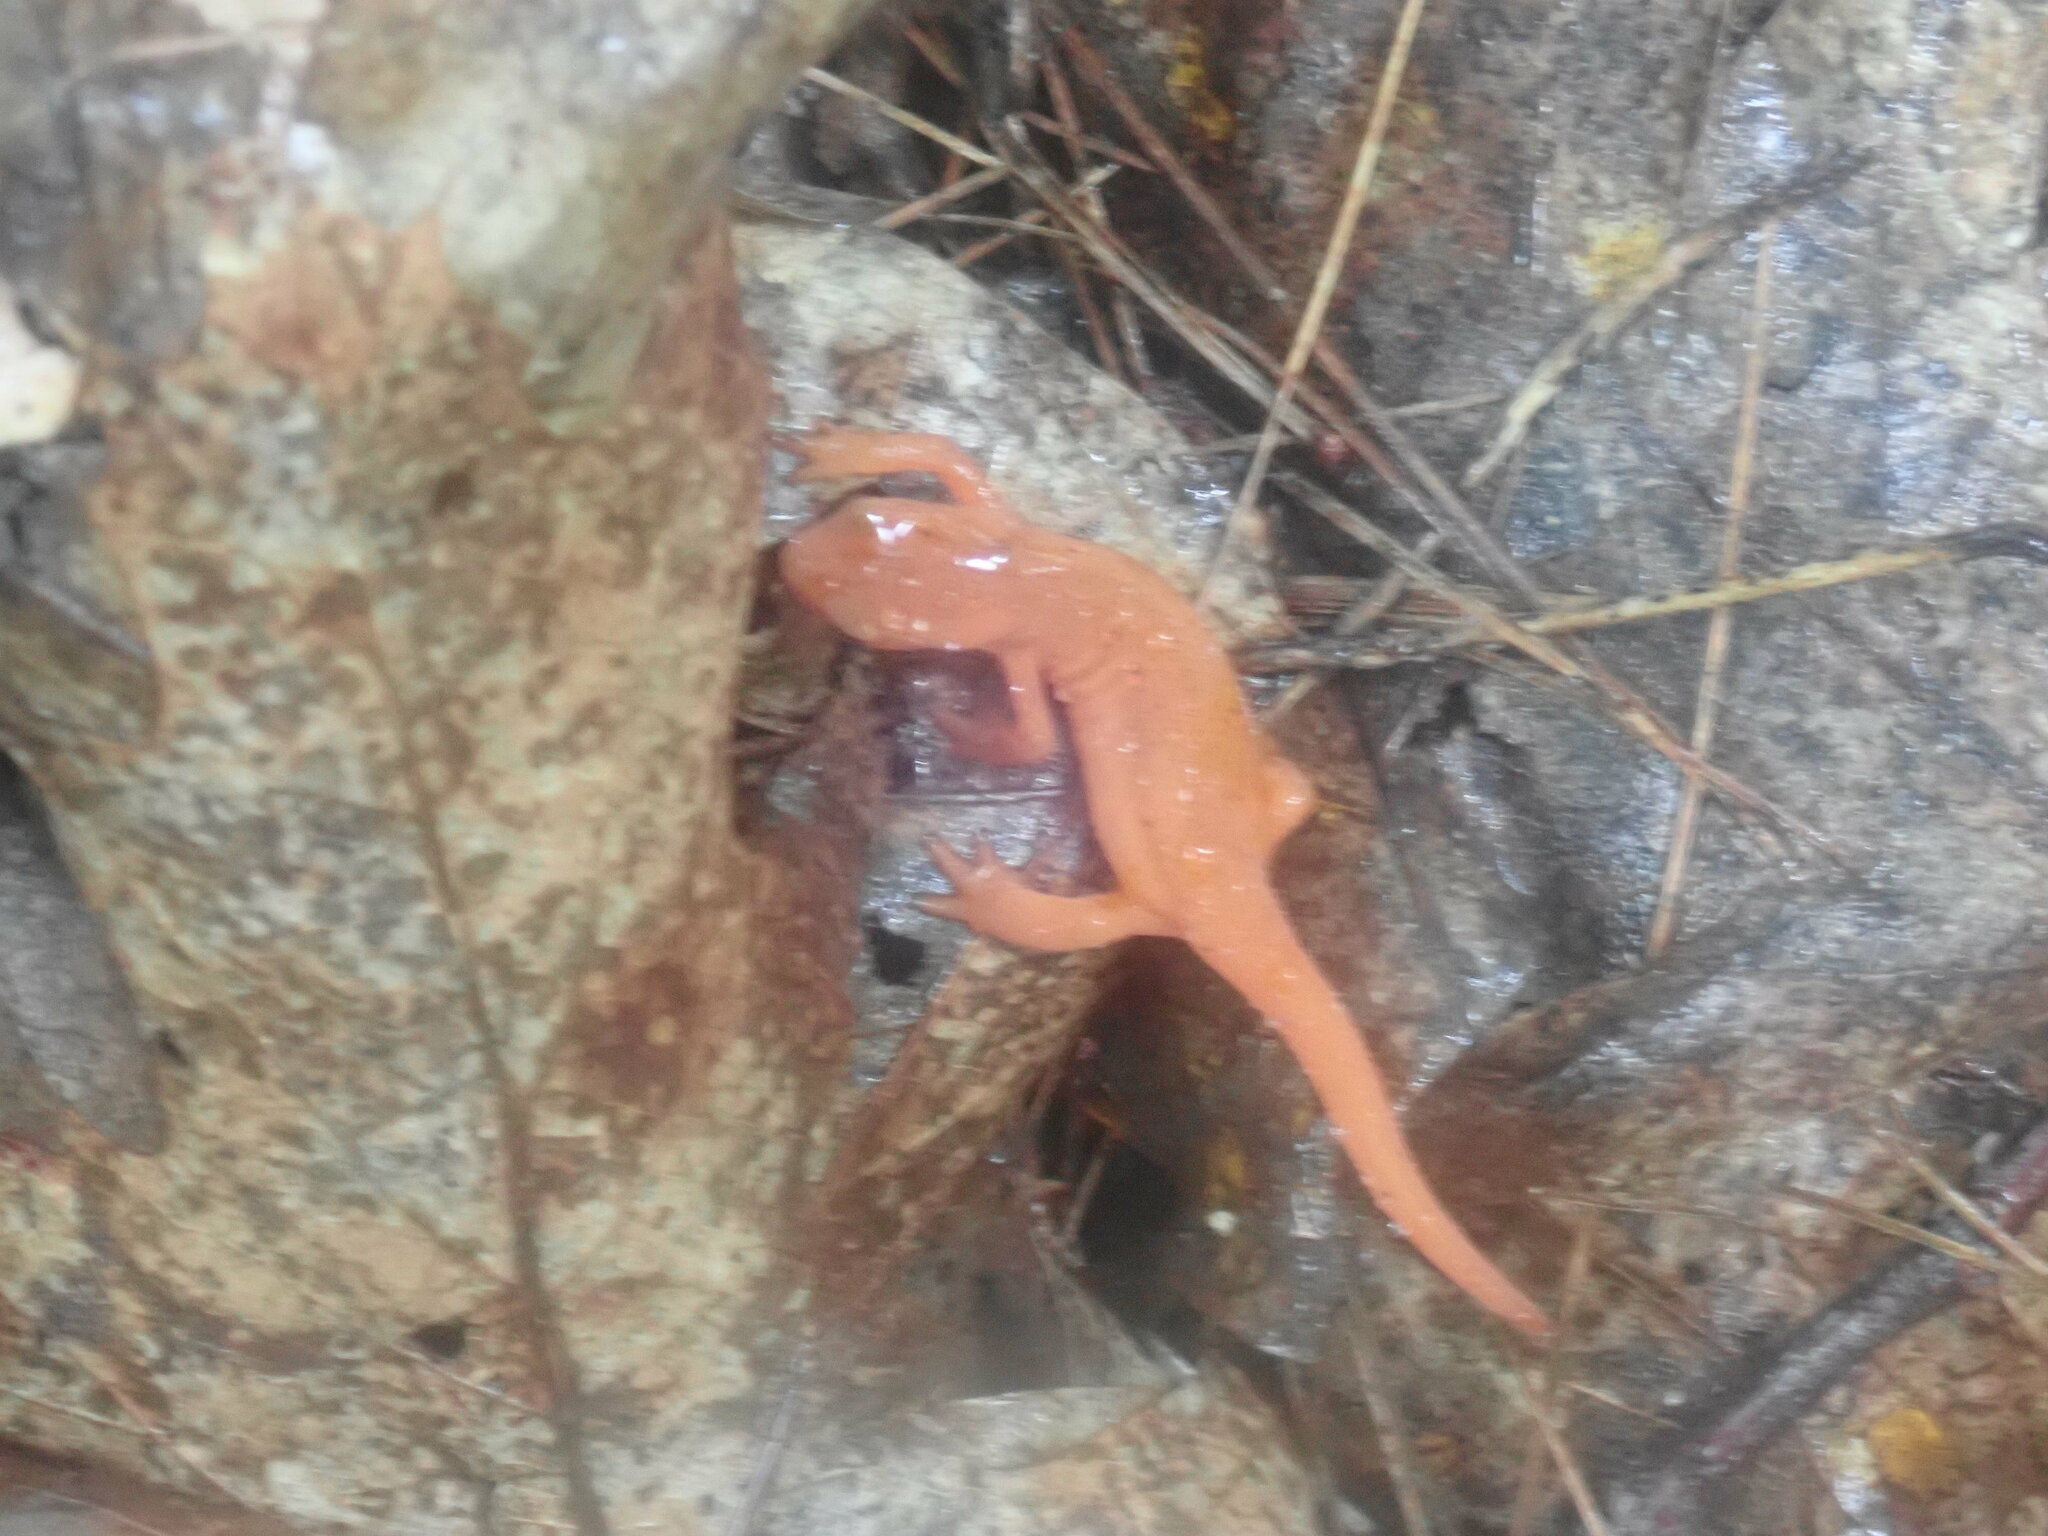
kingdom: Animalia
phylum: Chordata
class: Amphibia
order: Caudata
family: Salamandridae
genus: Notophthalmus
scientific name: Notophthalmus viridescens
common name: Eastern newt
